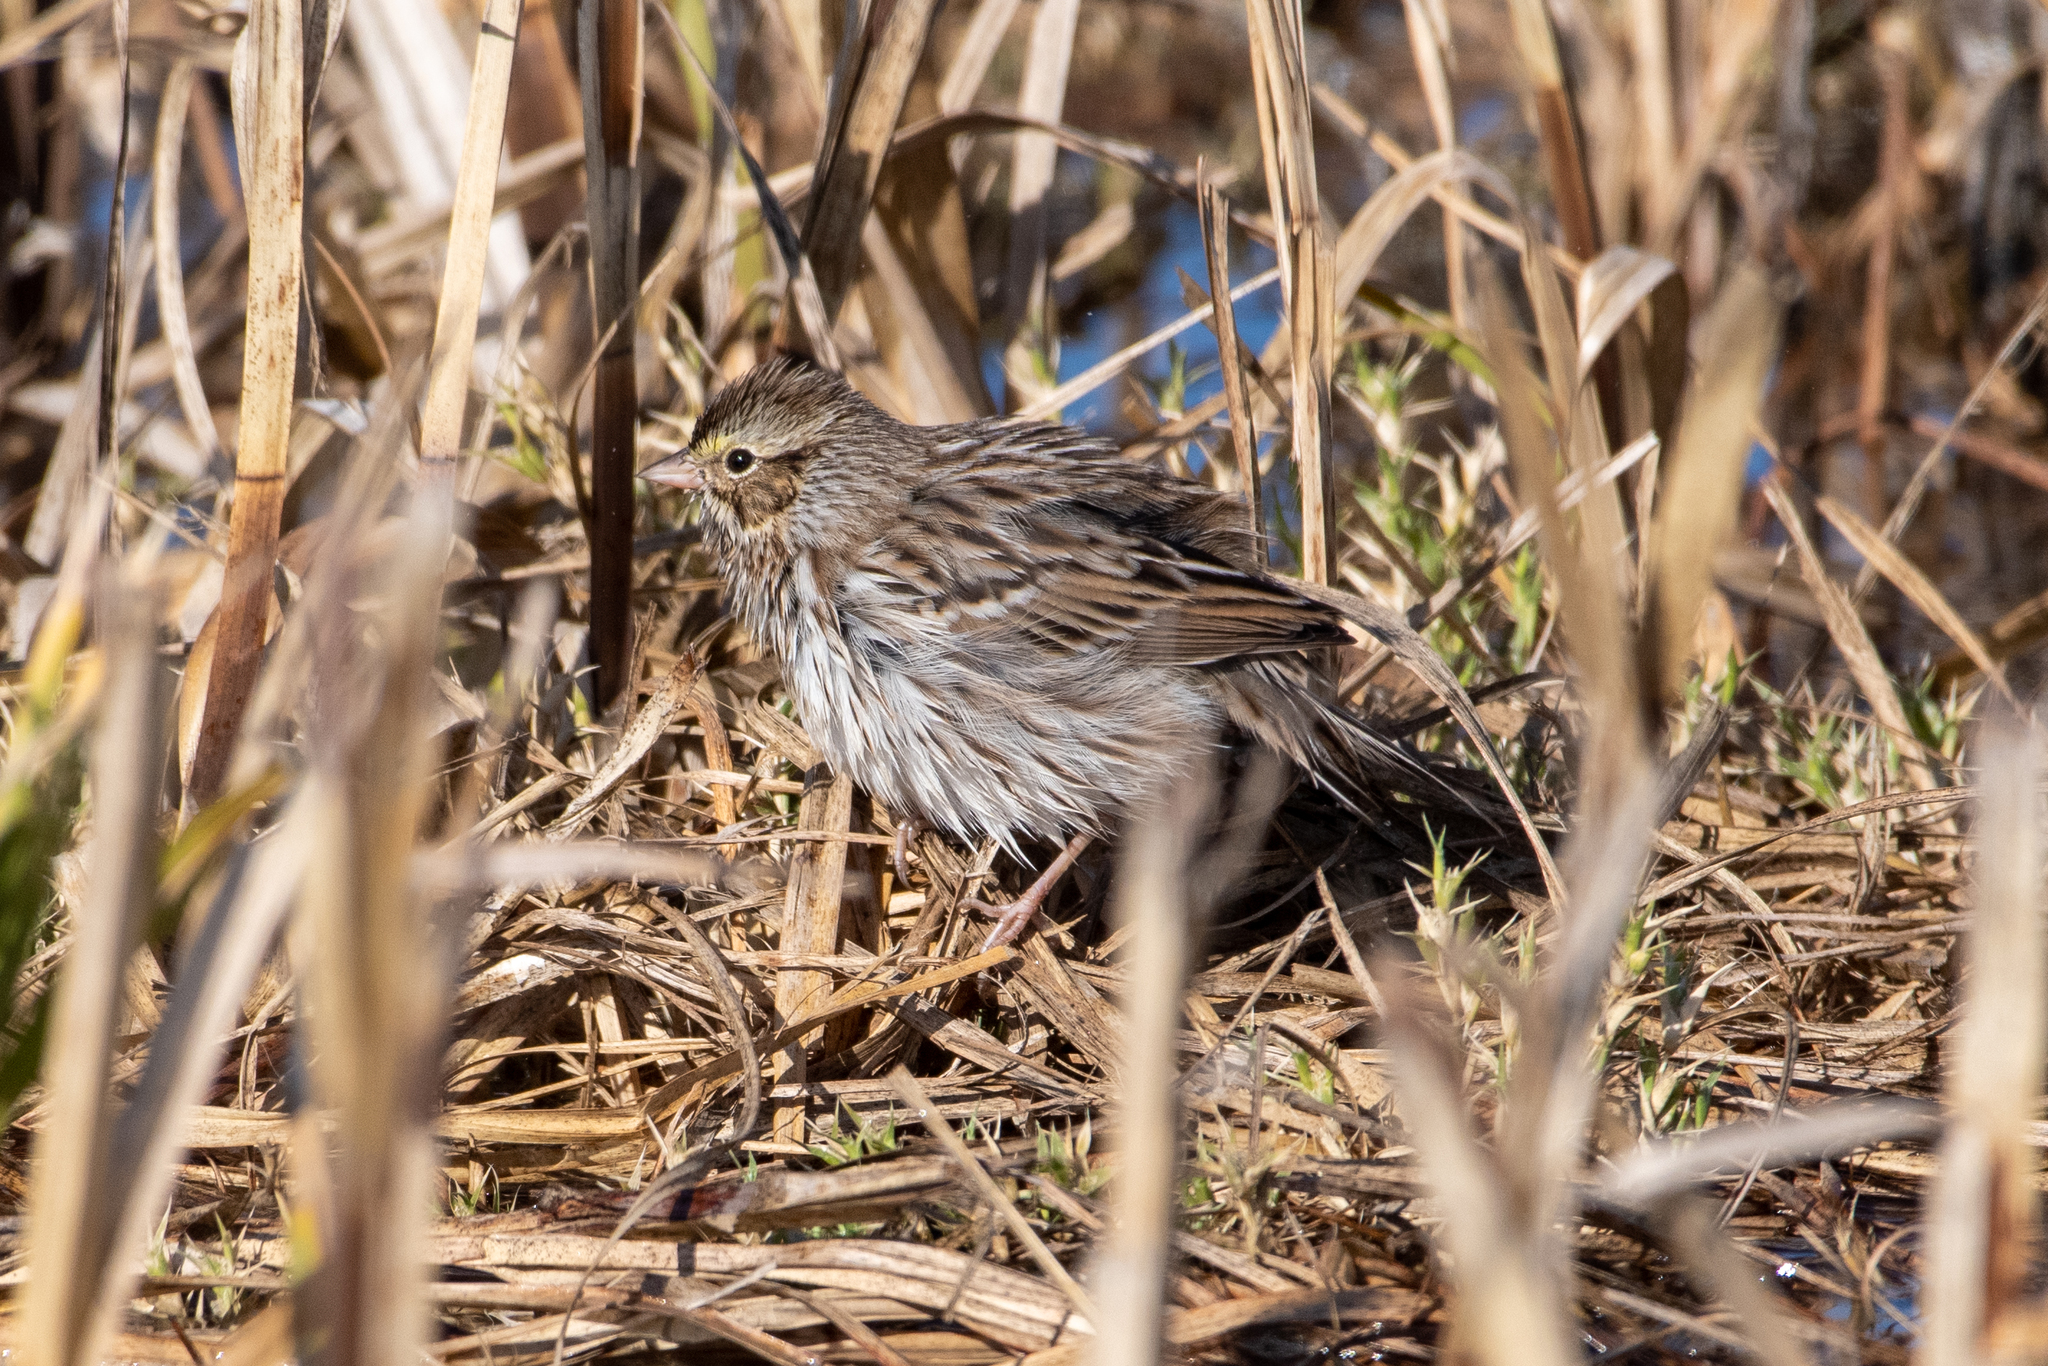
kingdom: Animalia
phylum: Chordata
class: Aves
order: Passeriformes
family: Passerellidae
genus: Passerculus
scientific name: Passerculus sandwichensis
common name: Savannah sparrow
